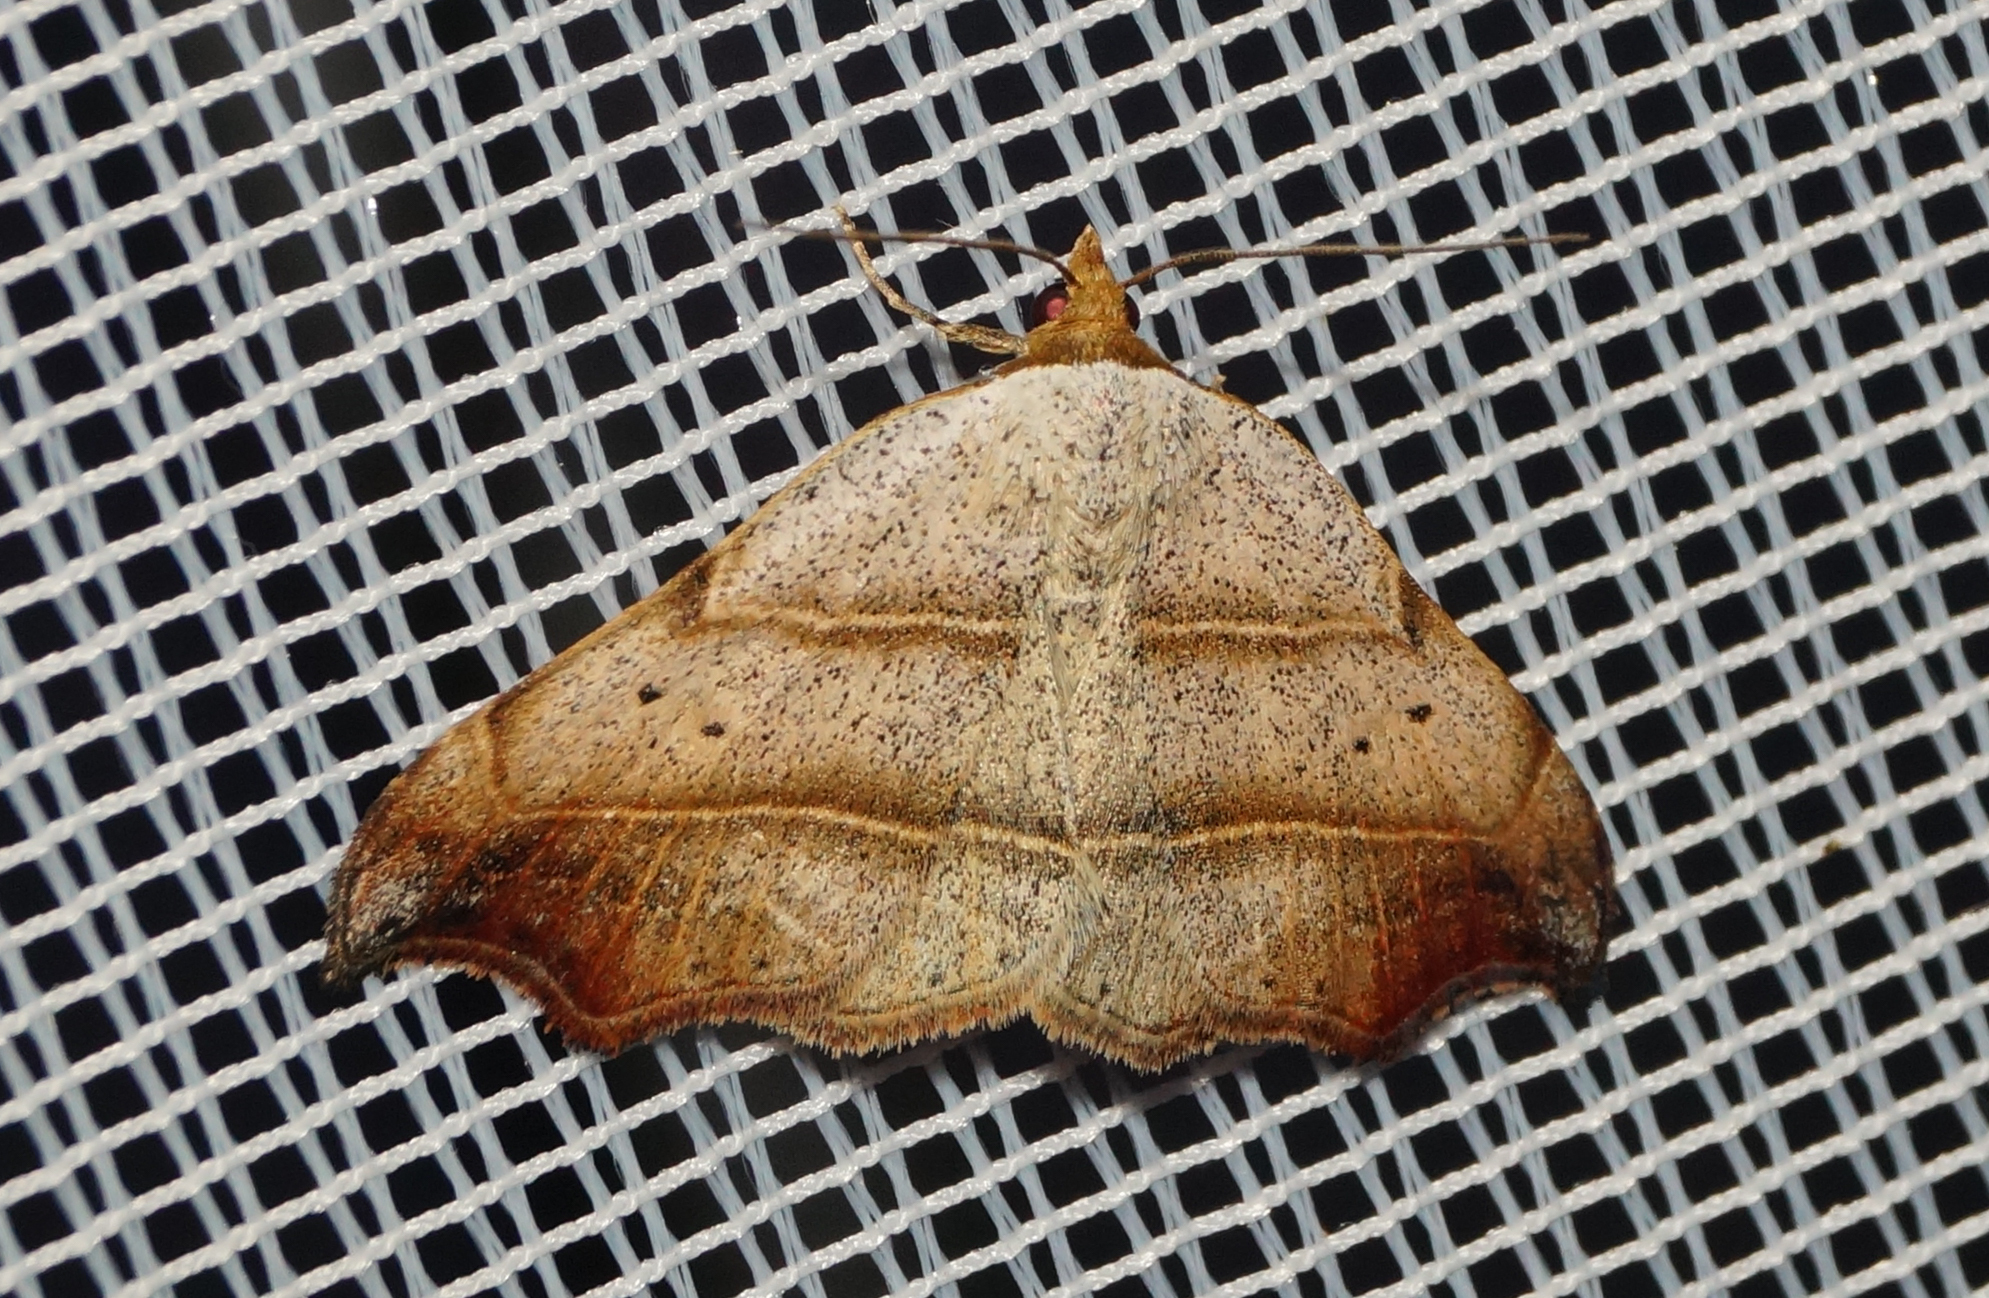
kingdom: Animalia
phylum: Arthropoda
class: Insecta
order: Lepidoptera
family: Erebidae
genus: Laspeyria
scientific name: Laspeyria flexula
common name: Beautiful hook-tip
